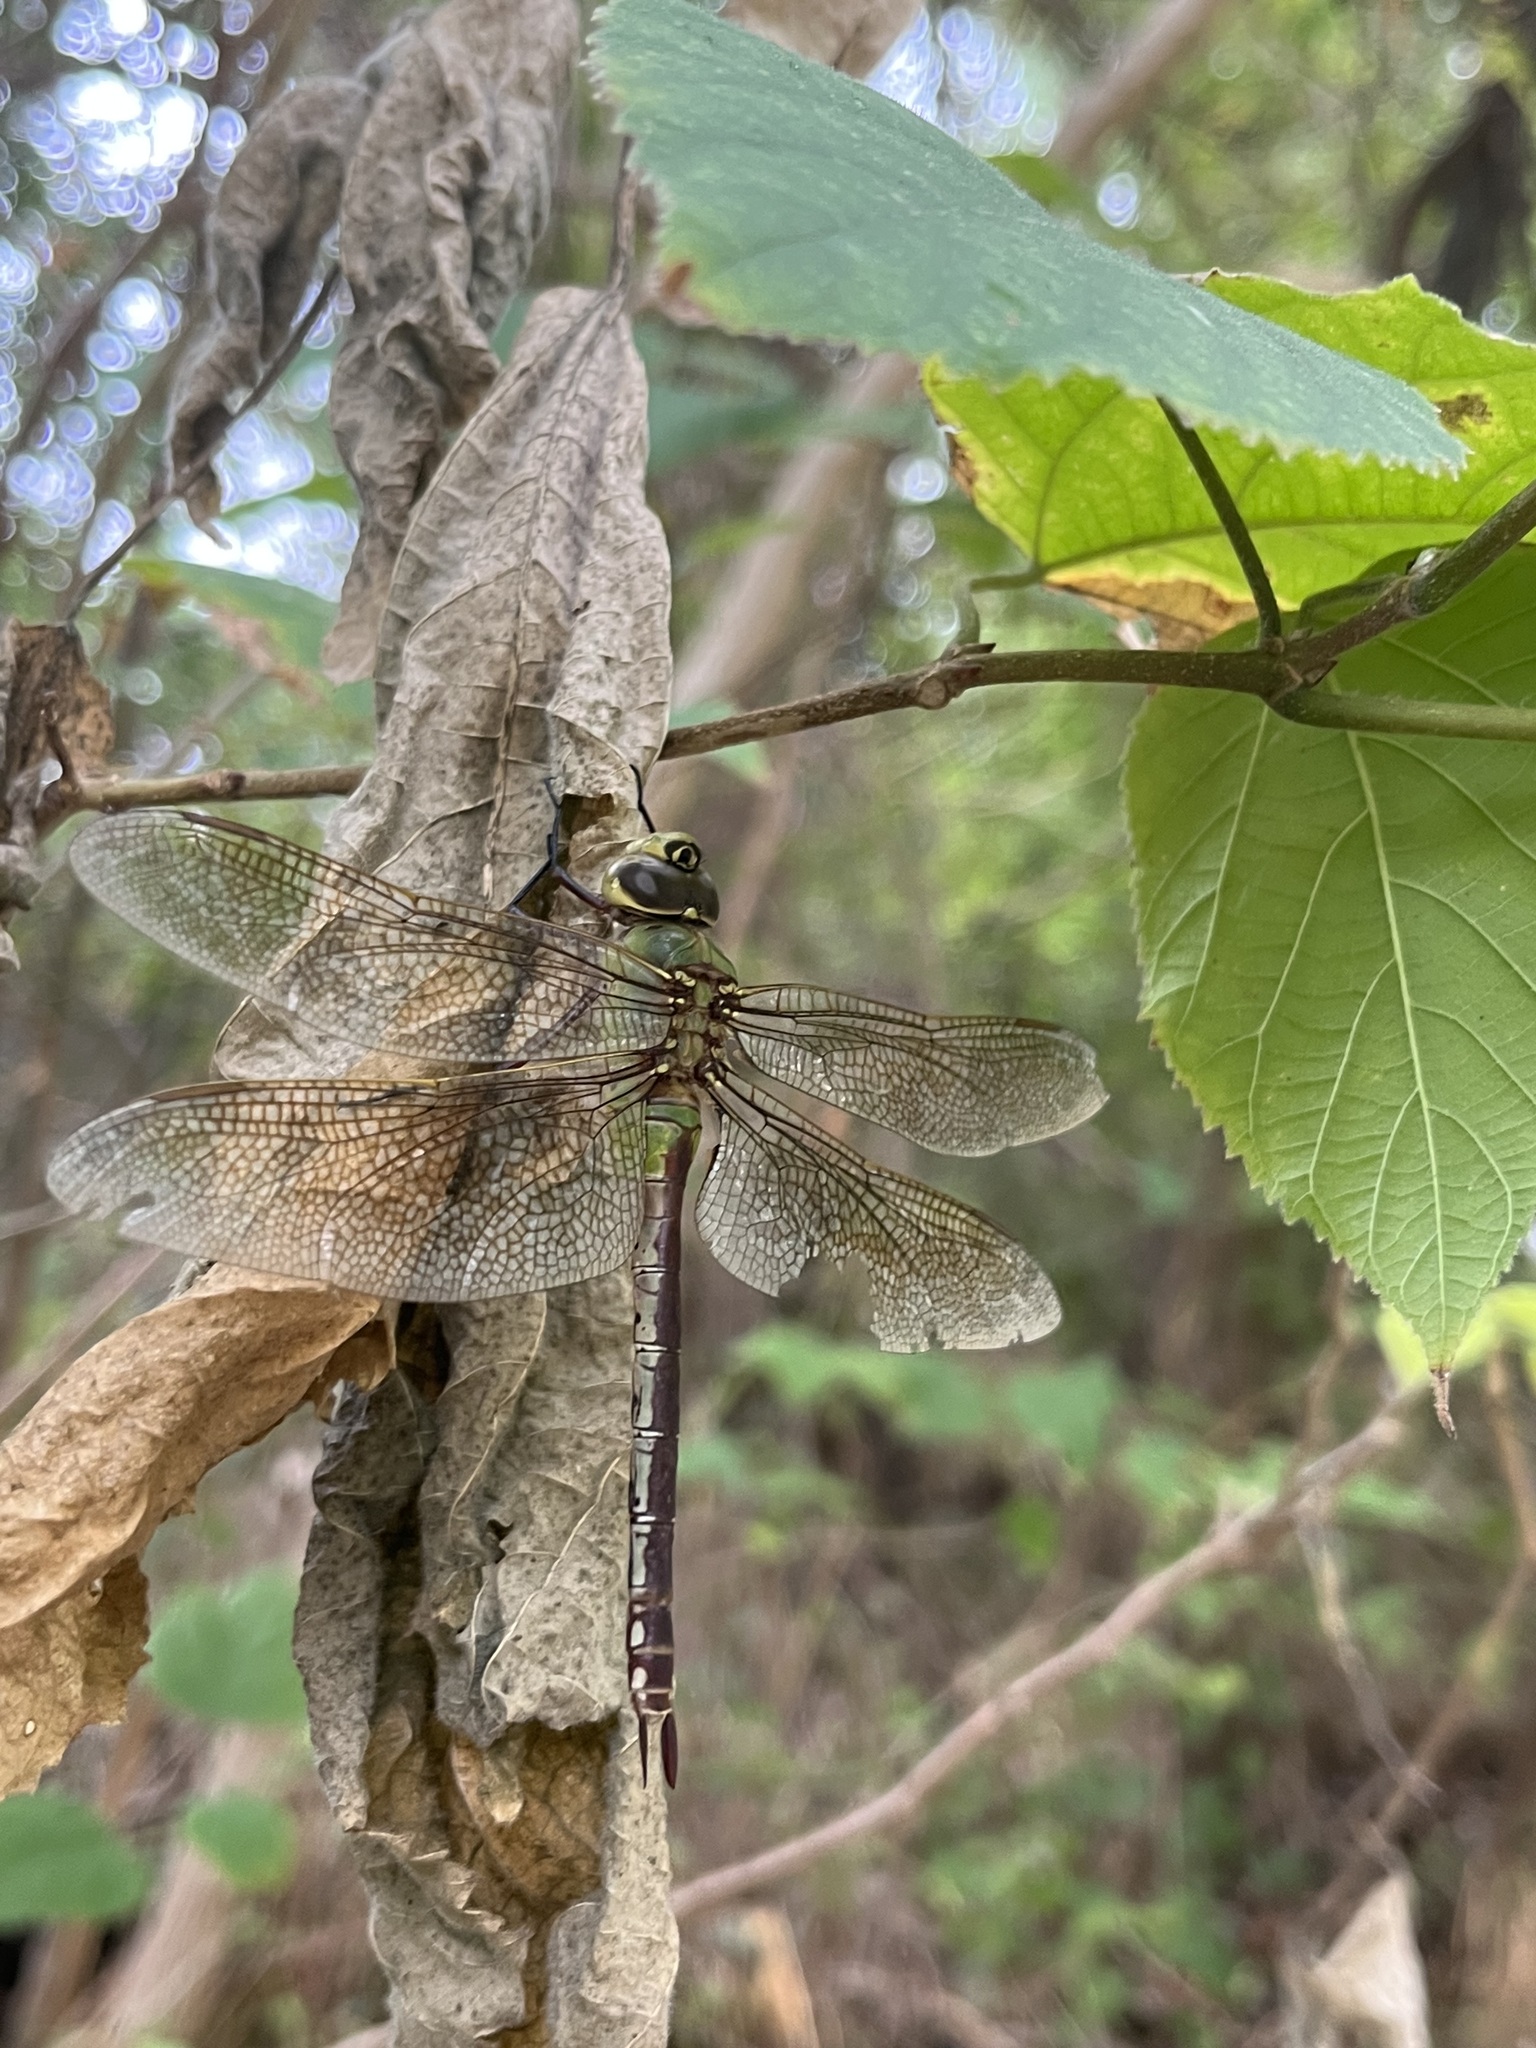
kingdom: Animalia
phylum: Arthropoda
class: Insecta
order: Odonata
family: Aeshnidae
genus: Anax
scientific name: Anax junius
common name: Common green darner
